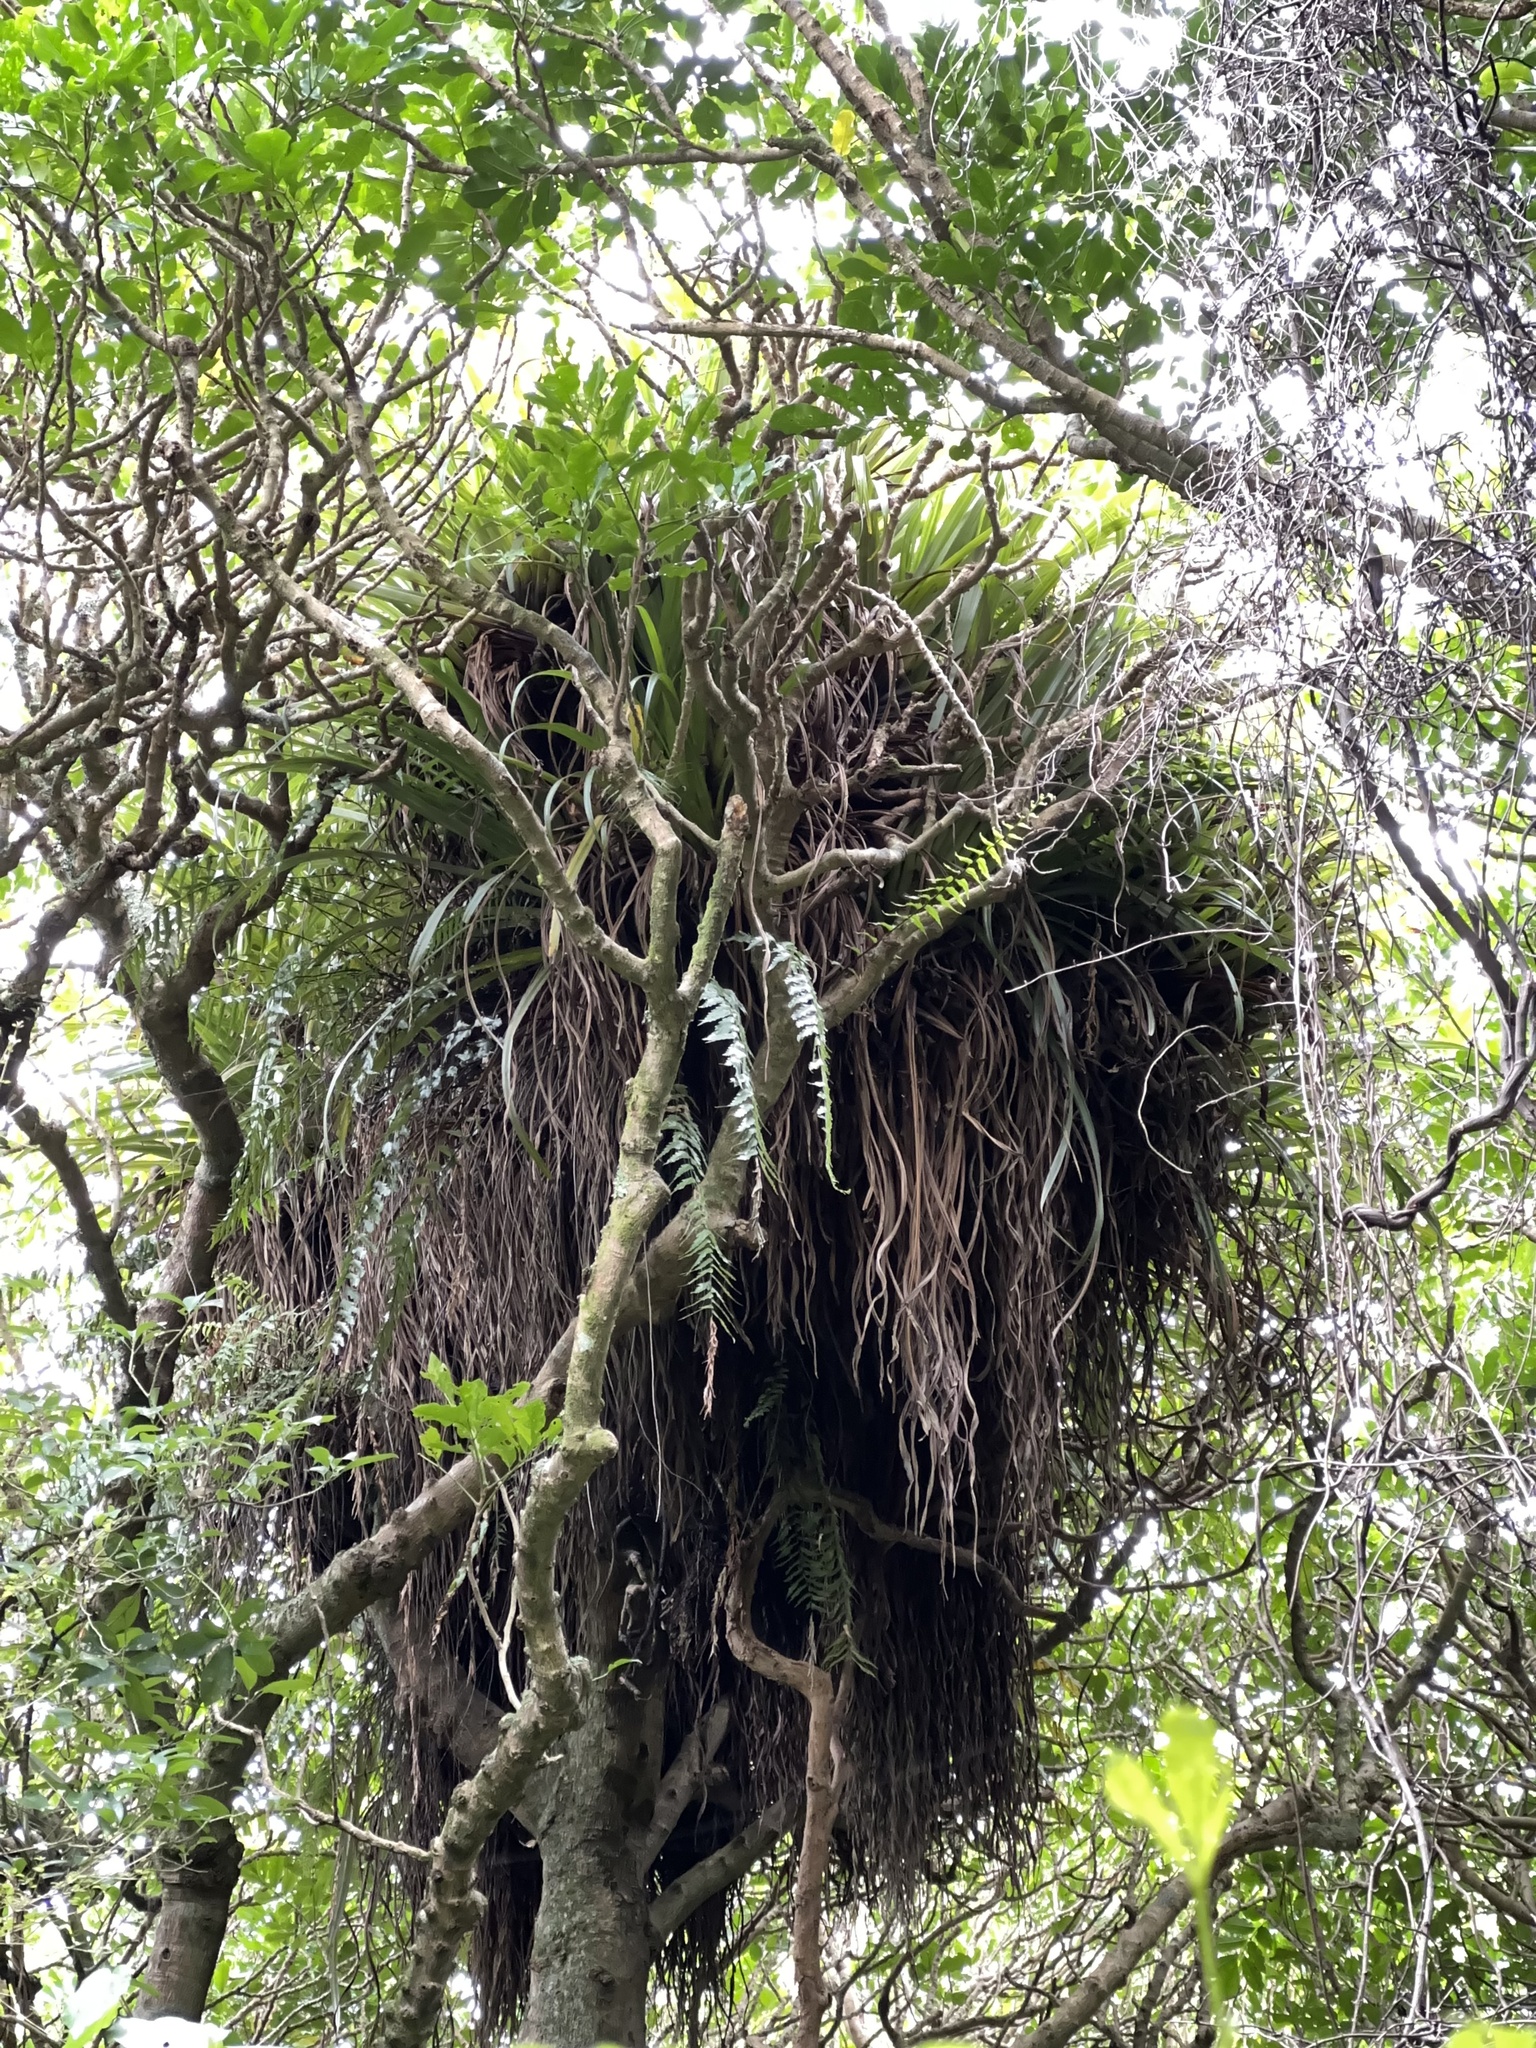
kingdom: Plantae
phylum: Tracheophyta
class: Liliopsida
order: Asparagales
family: Asteliaceae
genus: Astelia
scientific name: Astelia hastata
